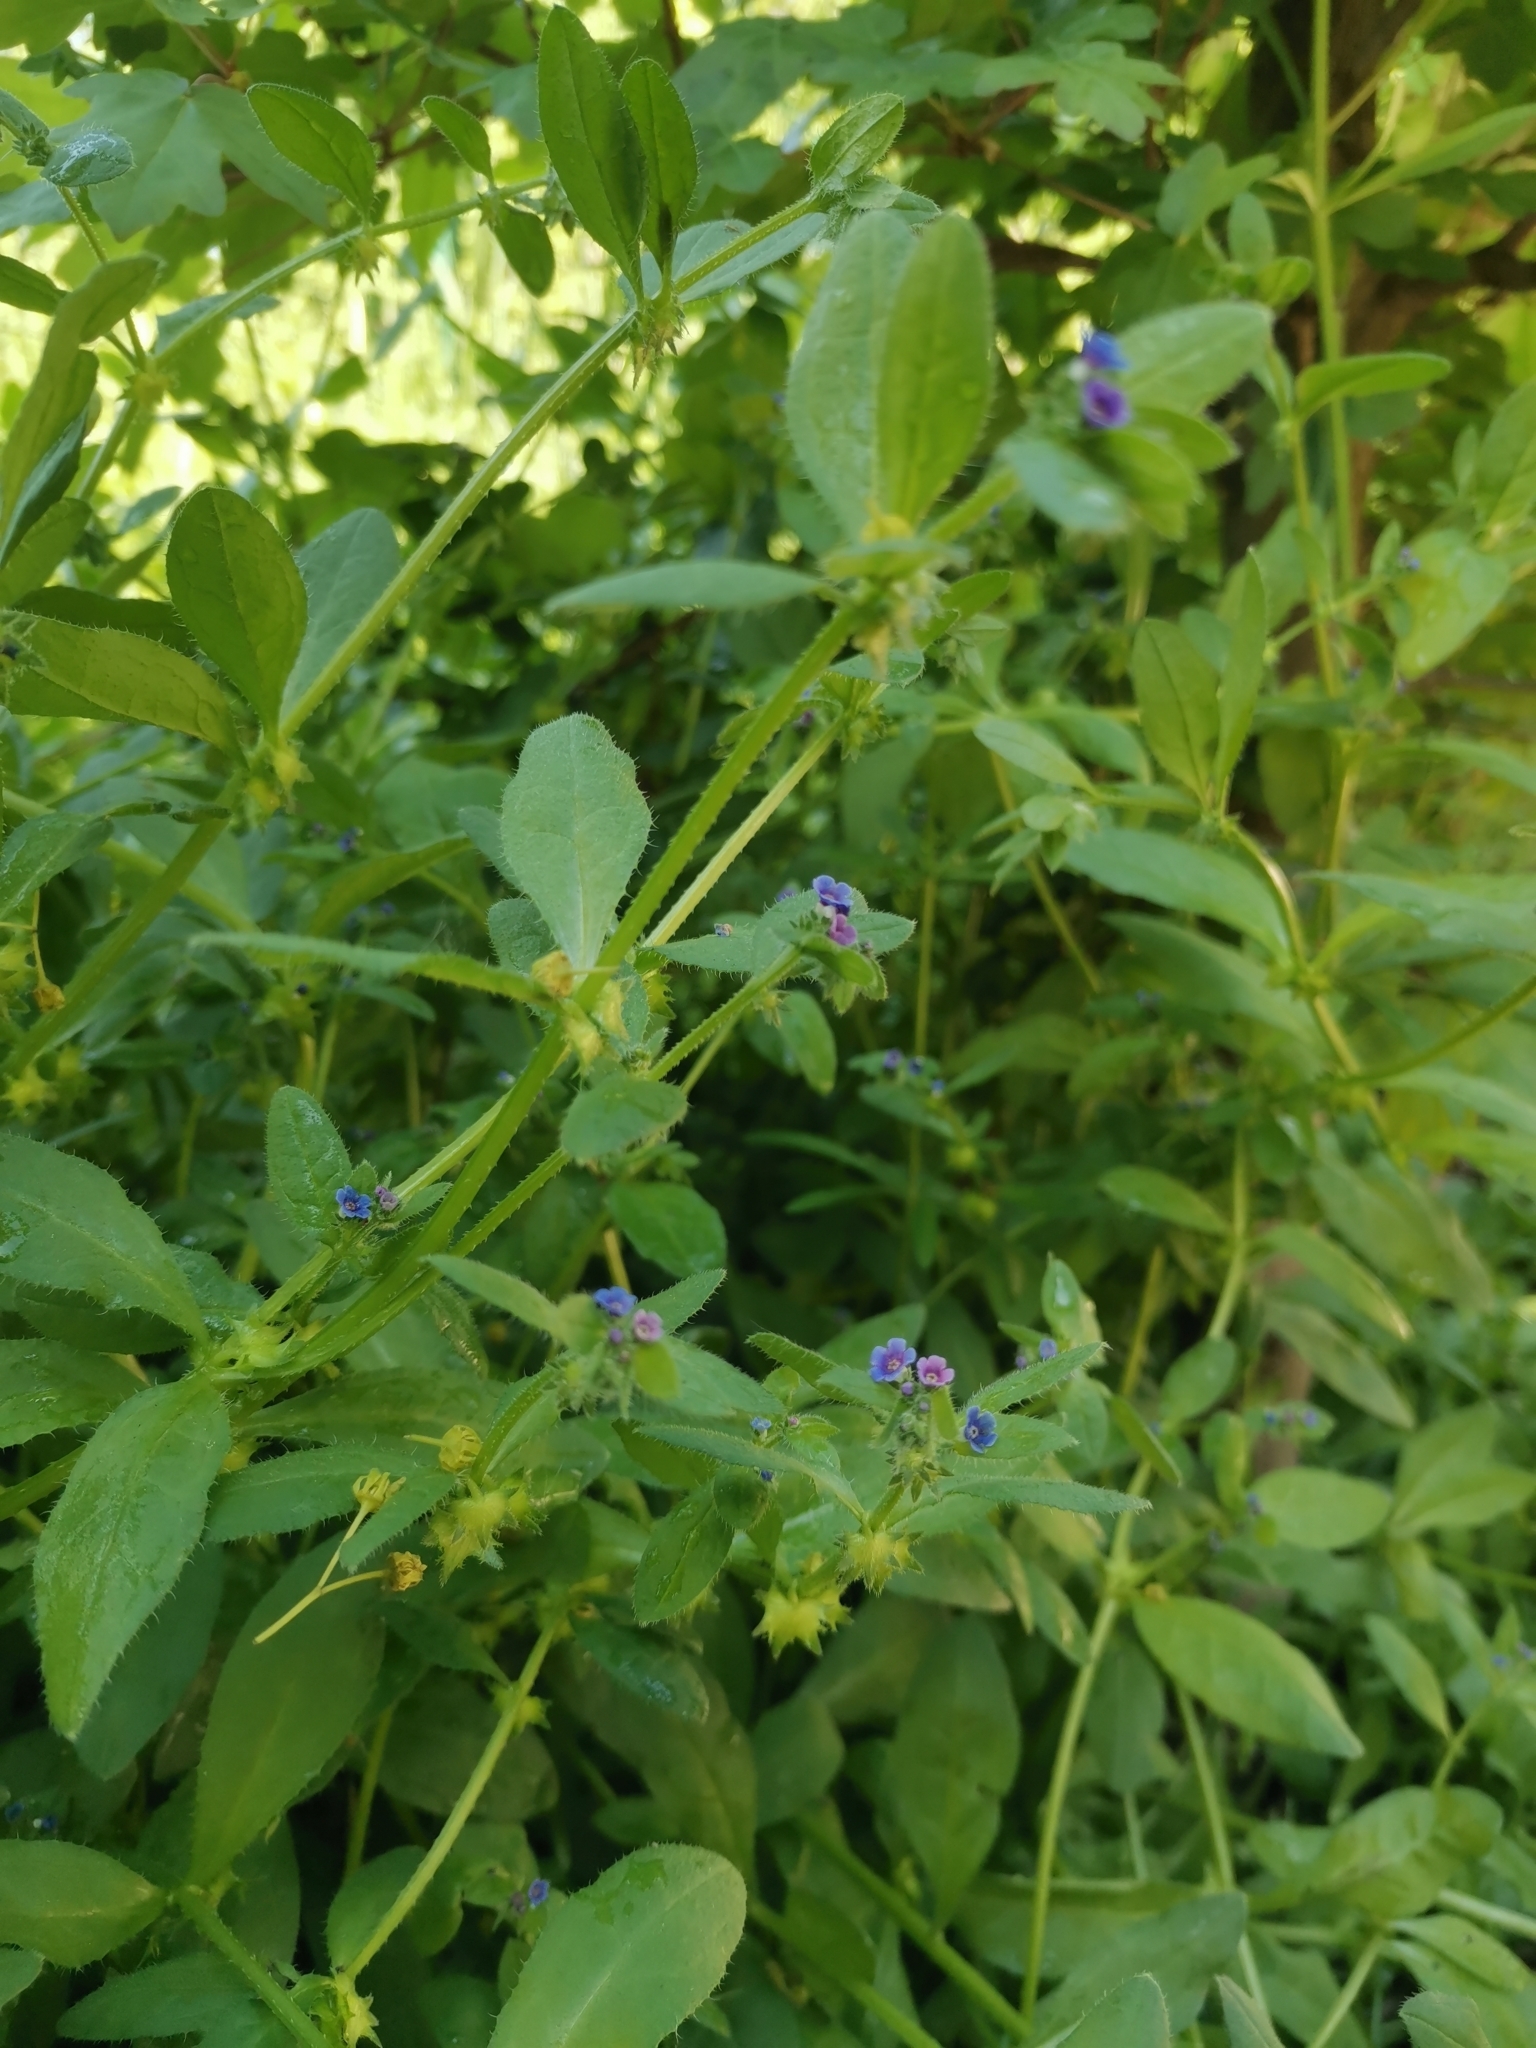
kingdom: Plantae
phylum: Tracheophyta
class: Magnoliopsida
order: Boraginales
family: Boraginaceae
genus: Asperugo
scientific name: Asperugo procumbens
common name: Madwort
